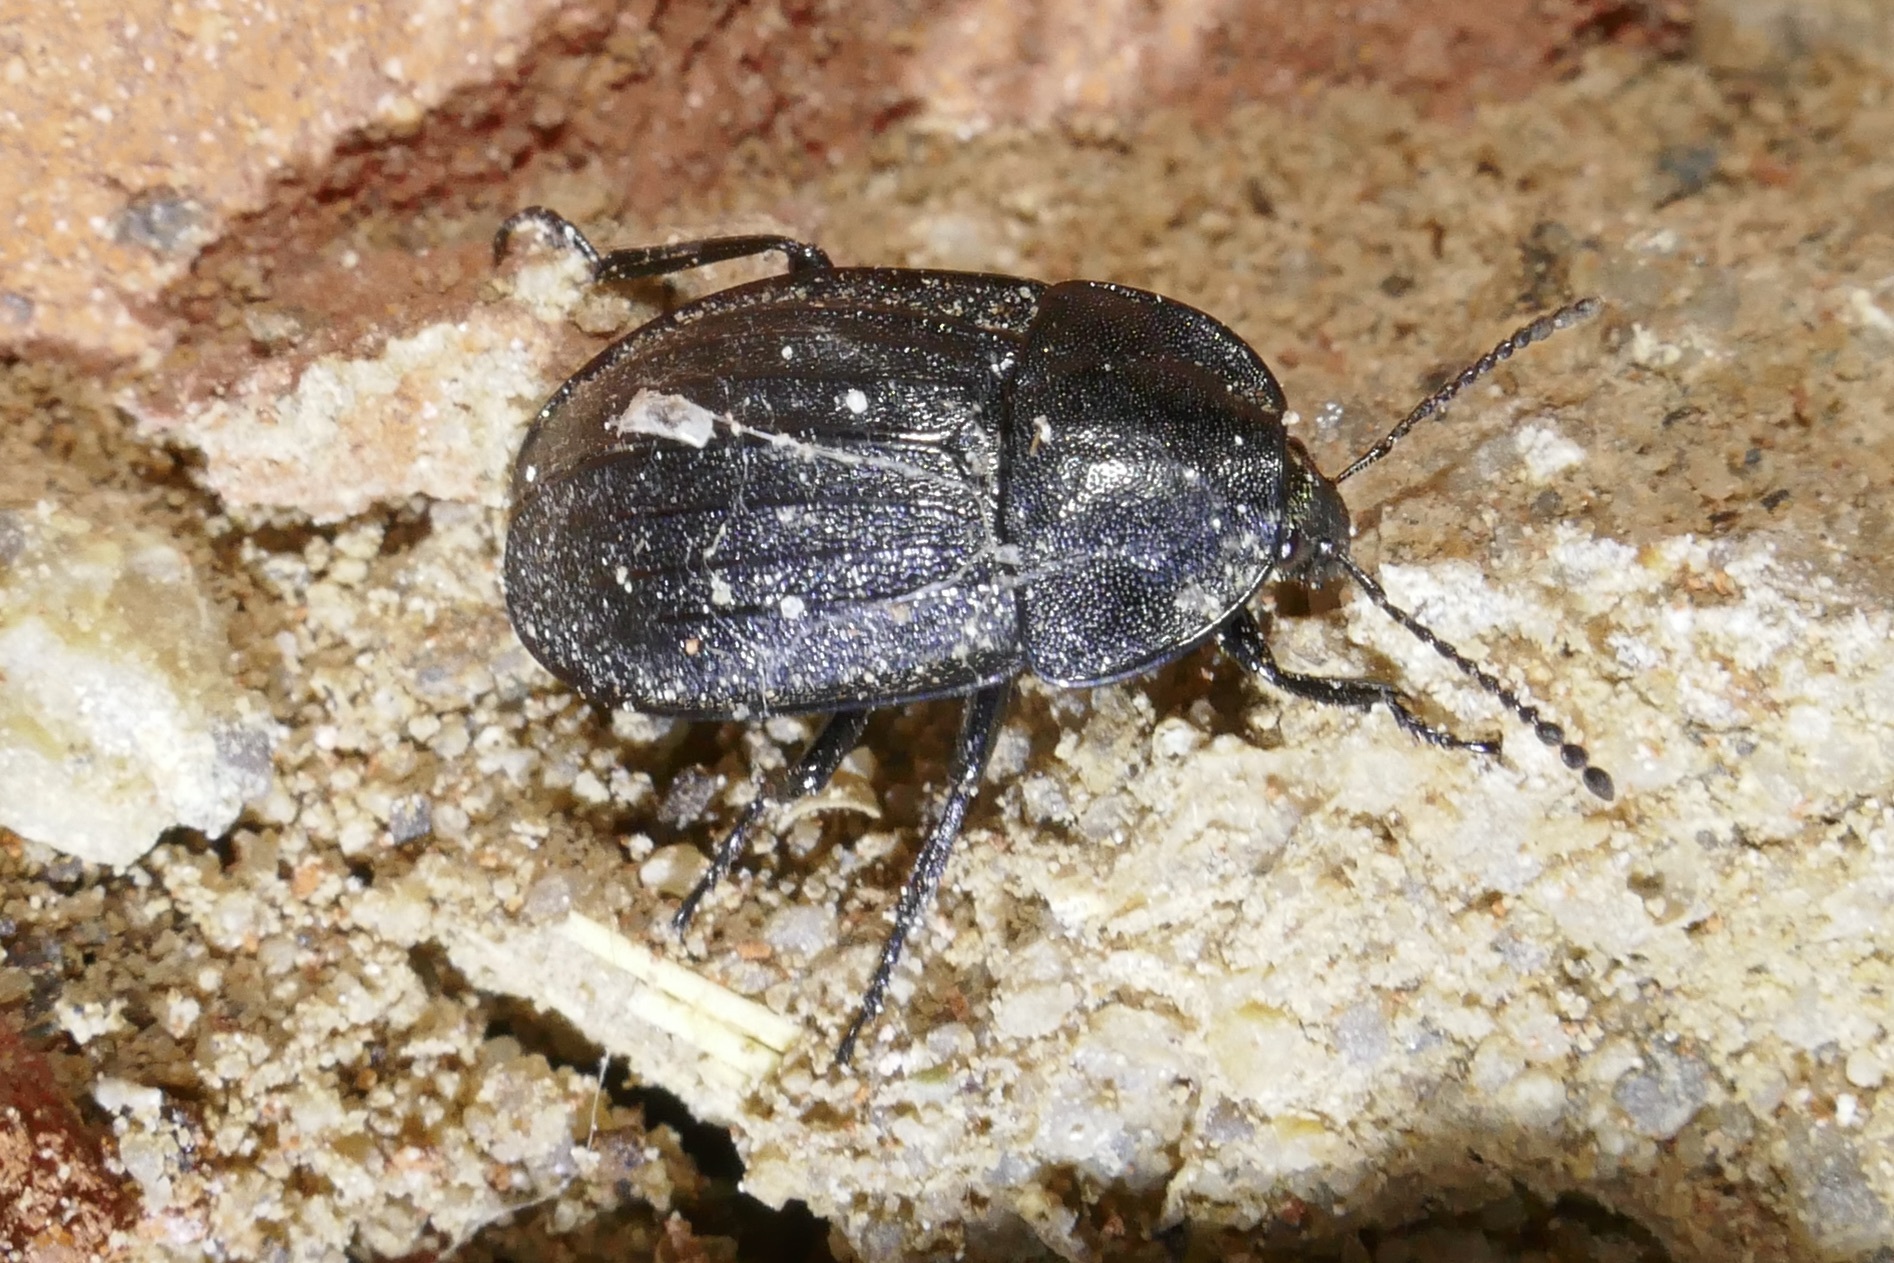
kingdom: Animalia
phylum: Arthropoda
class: Insecta
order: Coleoptera
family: Staphylinidae
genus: Silpha
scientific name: Silpha atrata
